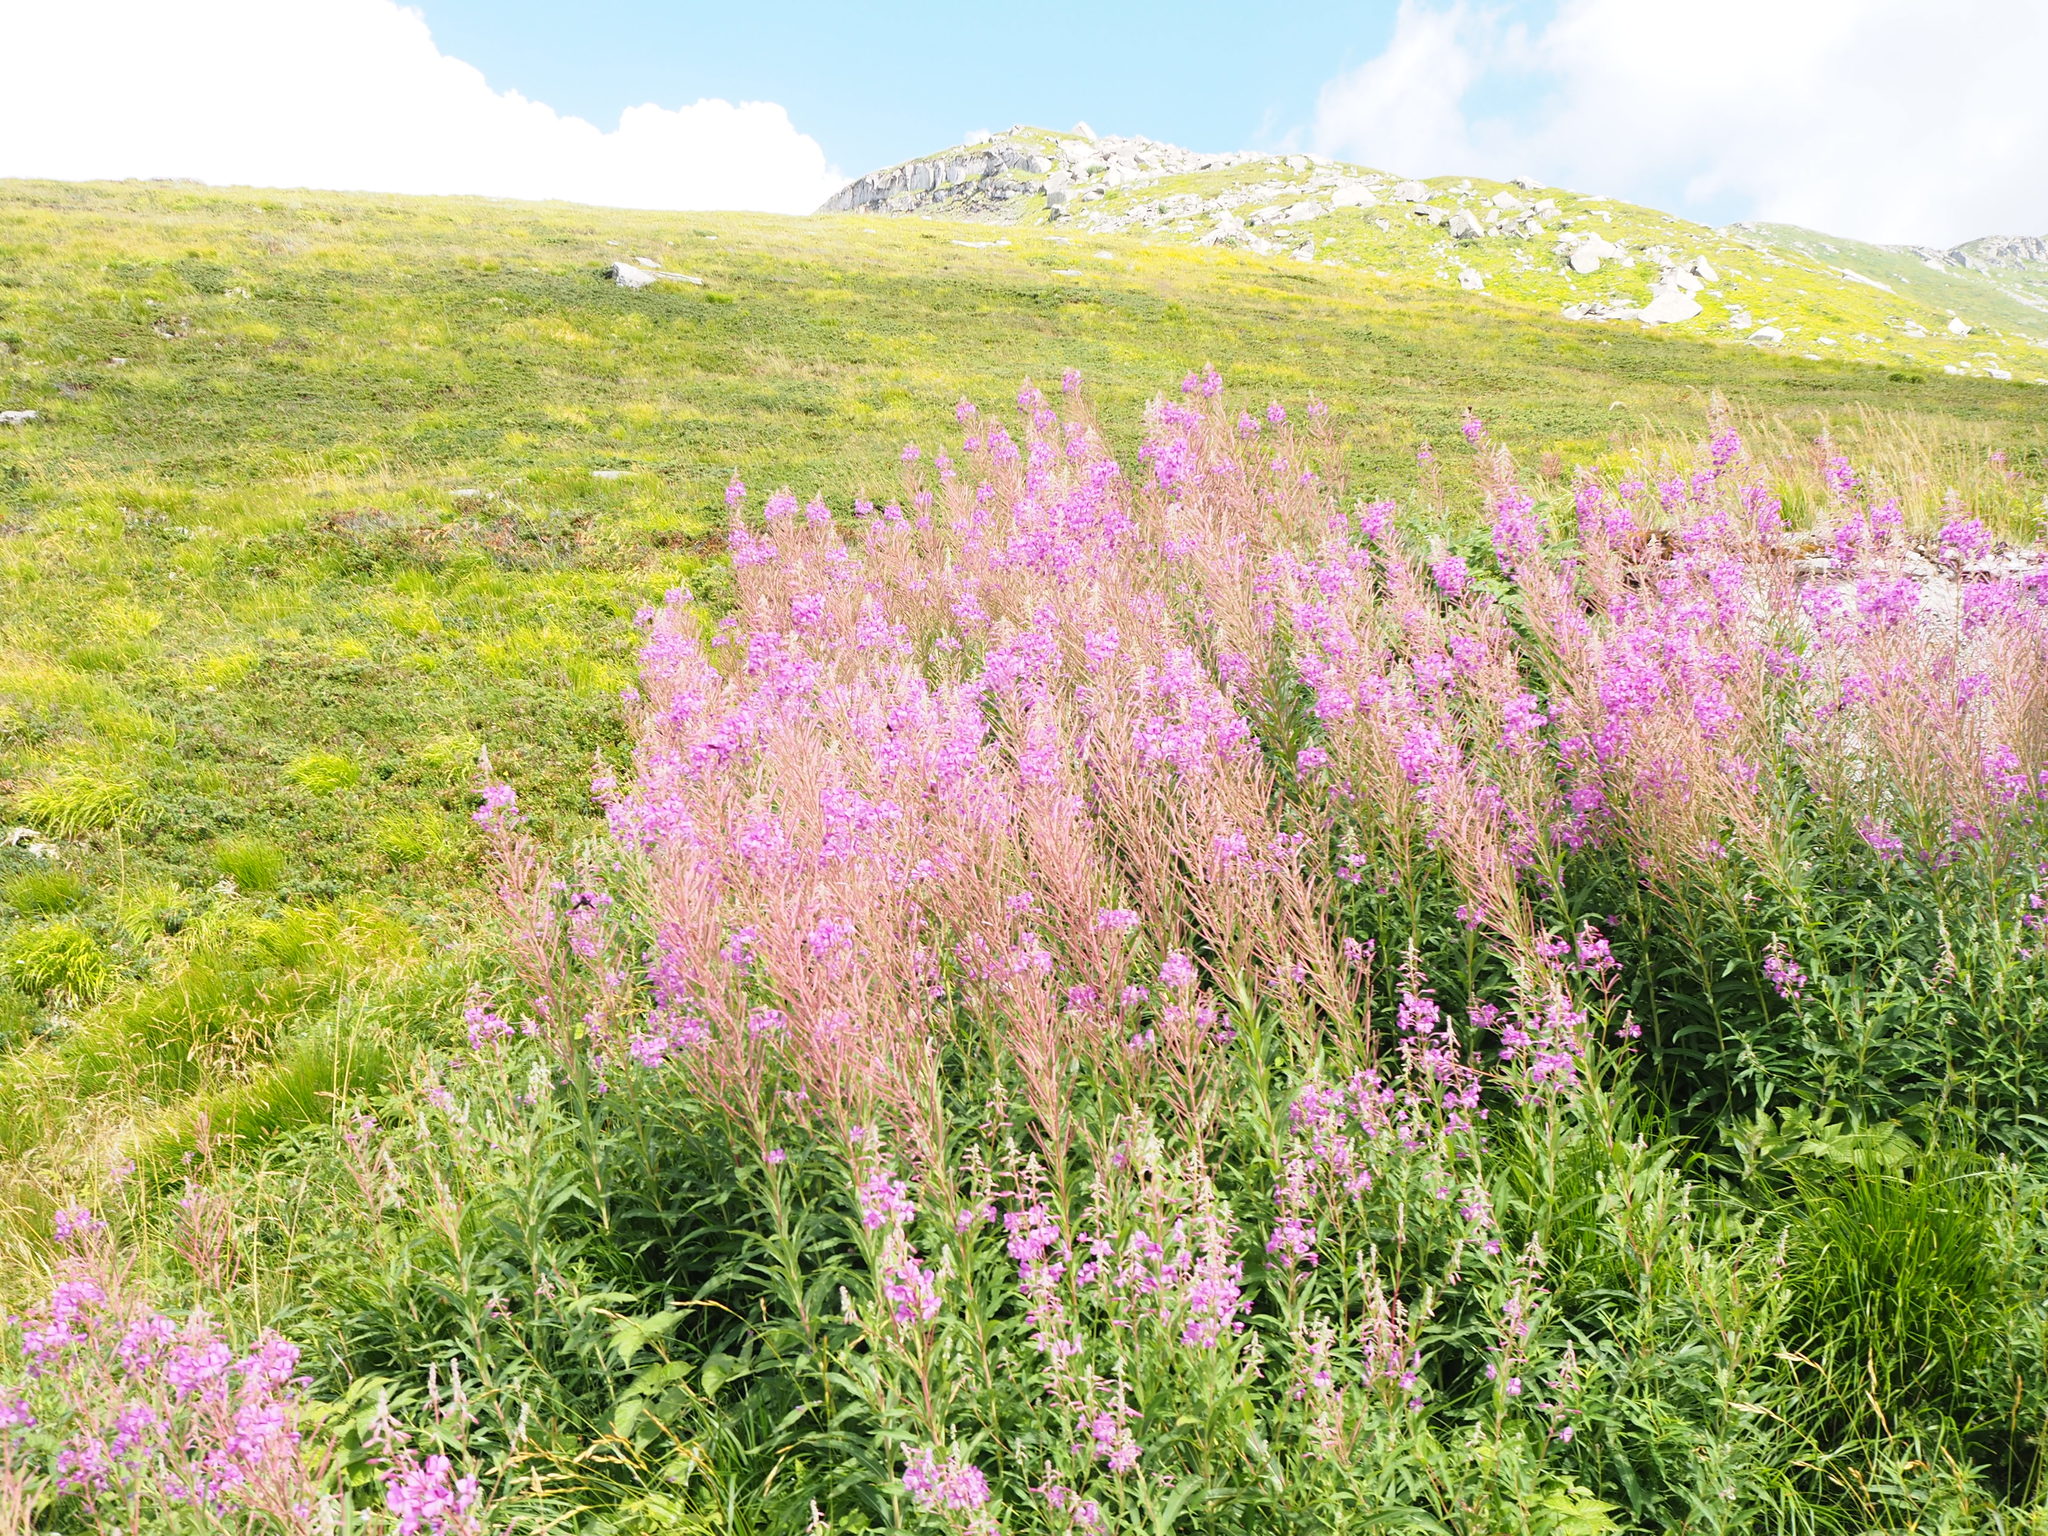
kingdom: Plantae
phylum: Tracheophyta
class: Magnoliopsida
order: Myrtales
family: Onagraceae
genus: Chamaenerion
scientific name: Chamaenerion angustifolium
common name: Fireweed
